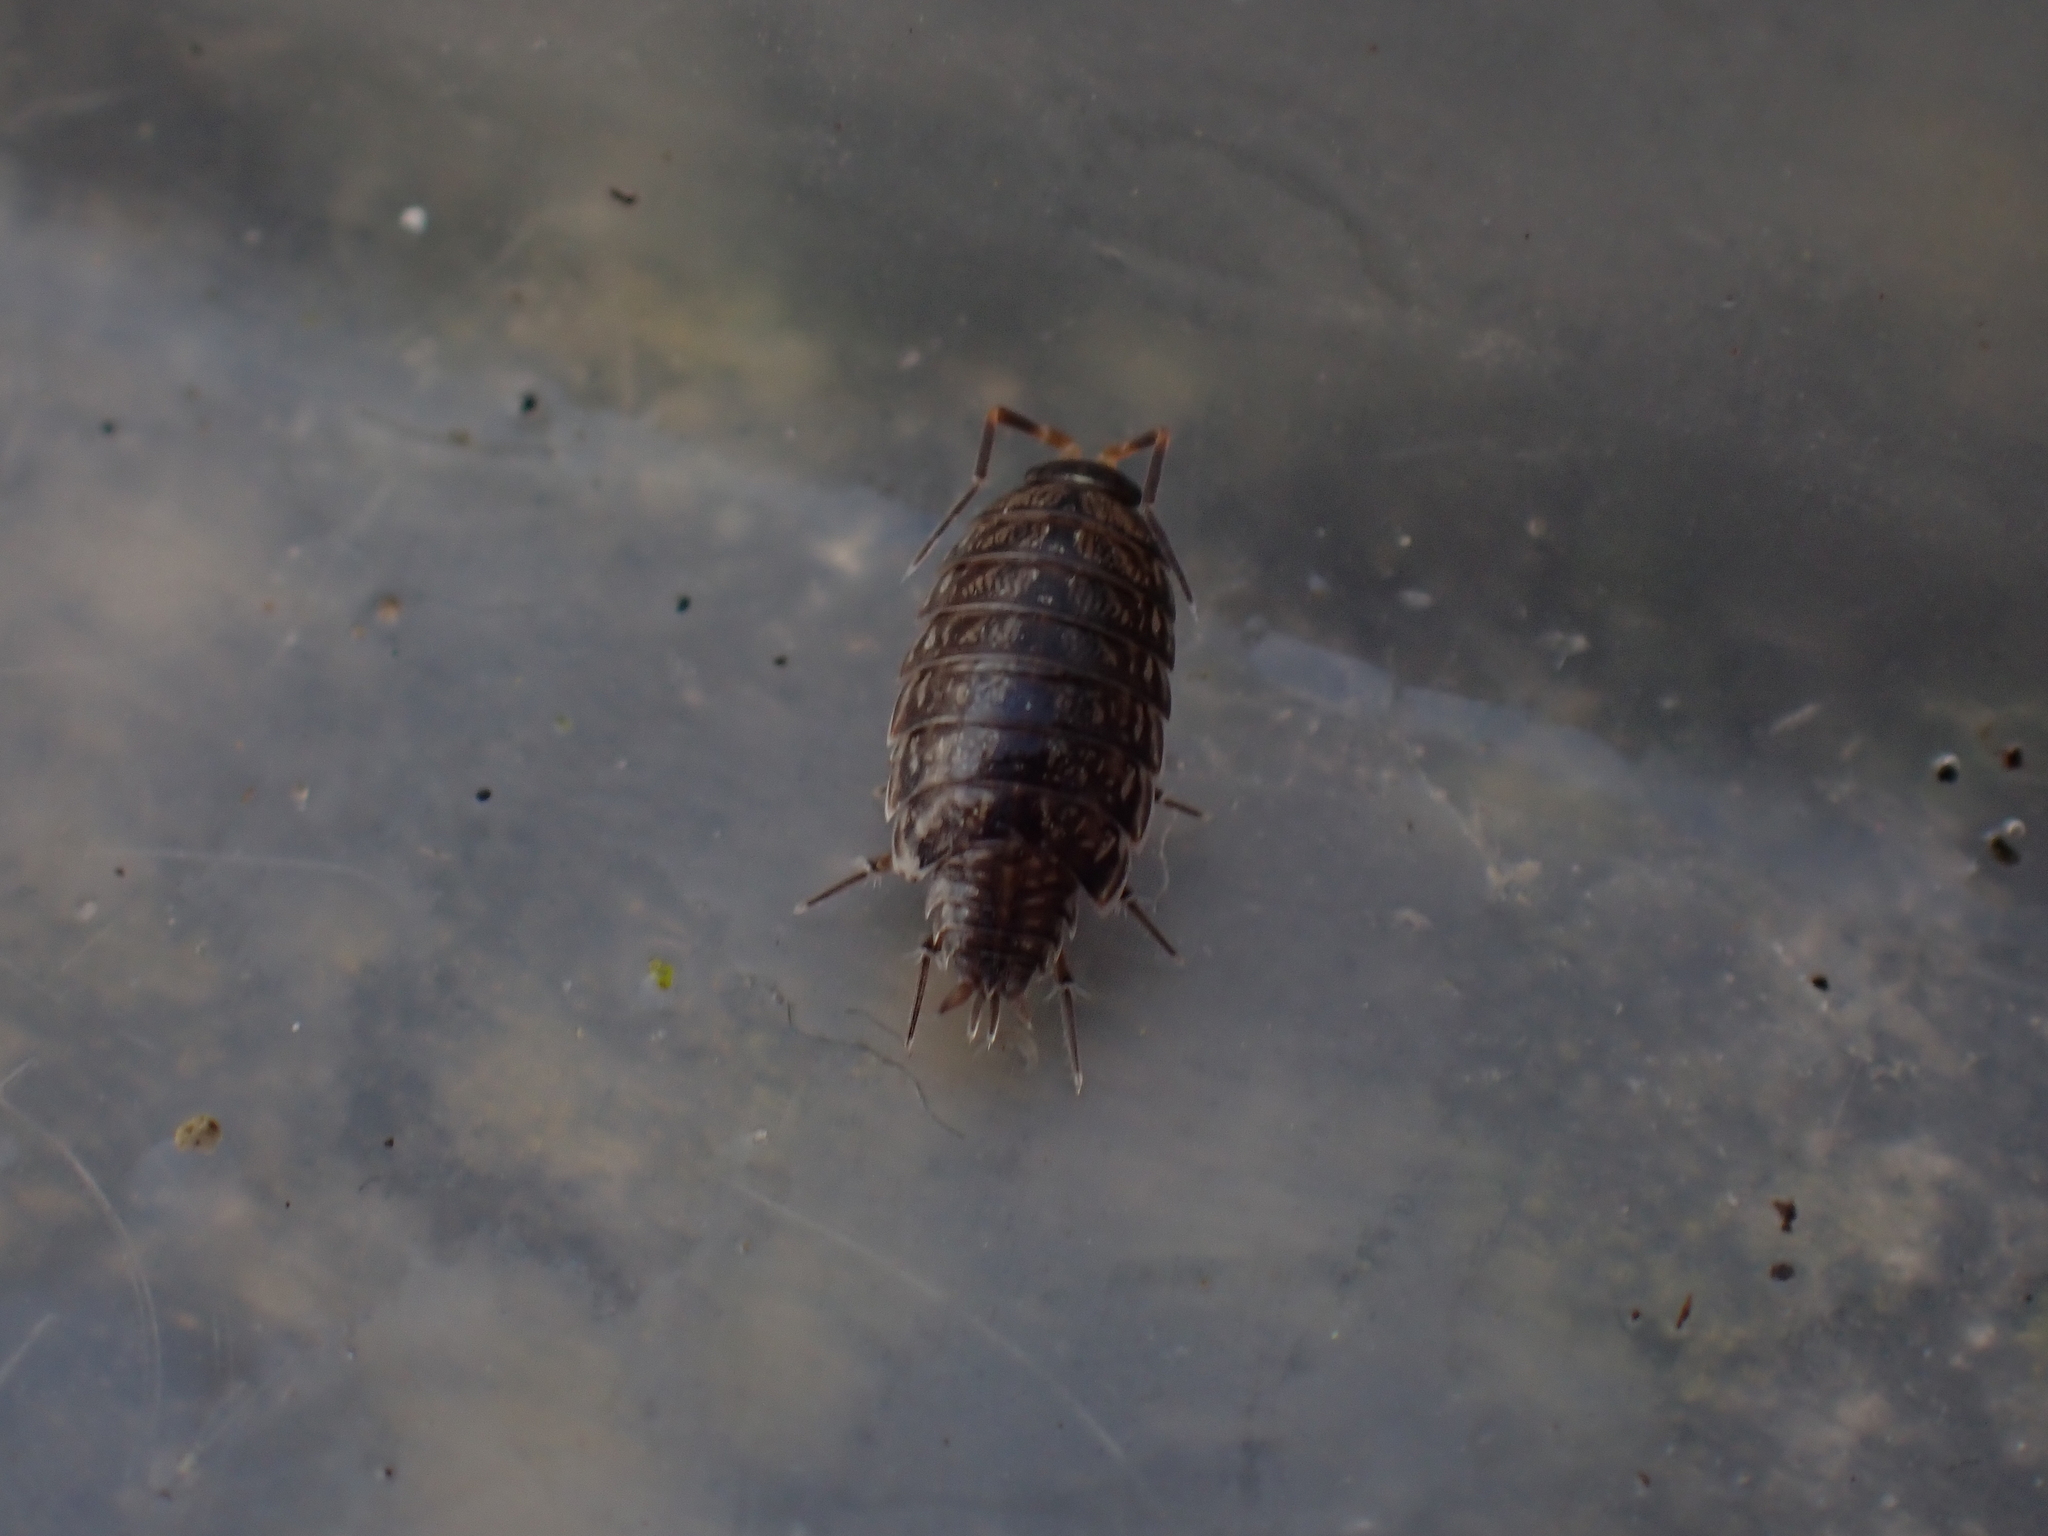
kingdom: Animalia
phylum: Arthropoda
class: Malacostraca
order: Isopoda
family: Philosciidae
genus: Philoscia
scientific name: Philoscia muscorum
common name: Common striped woodlouse
